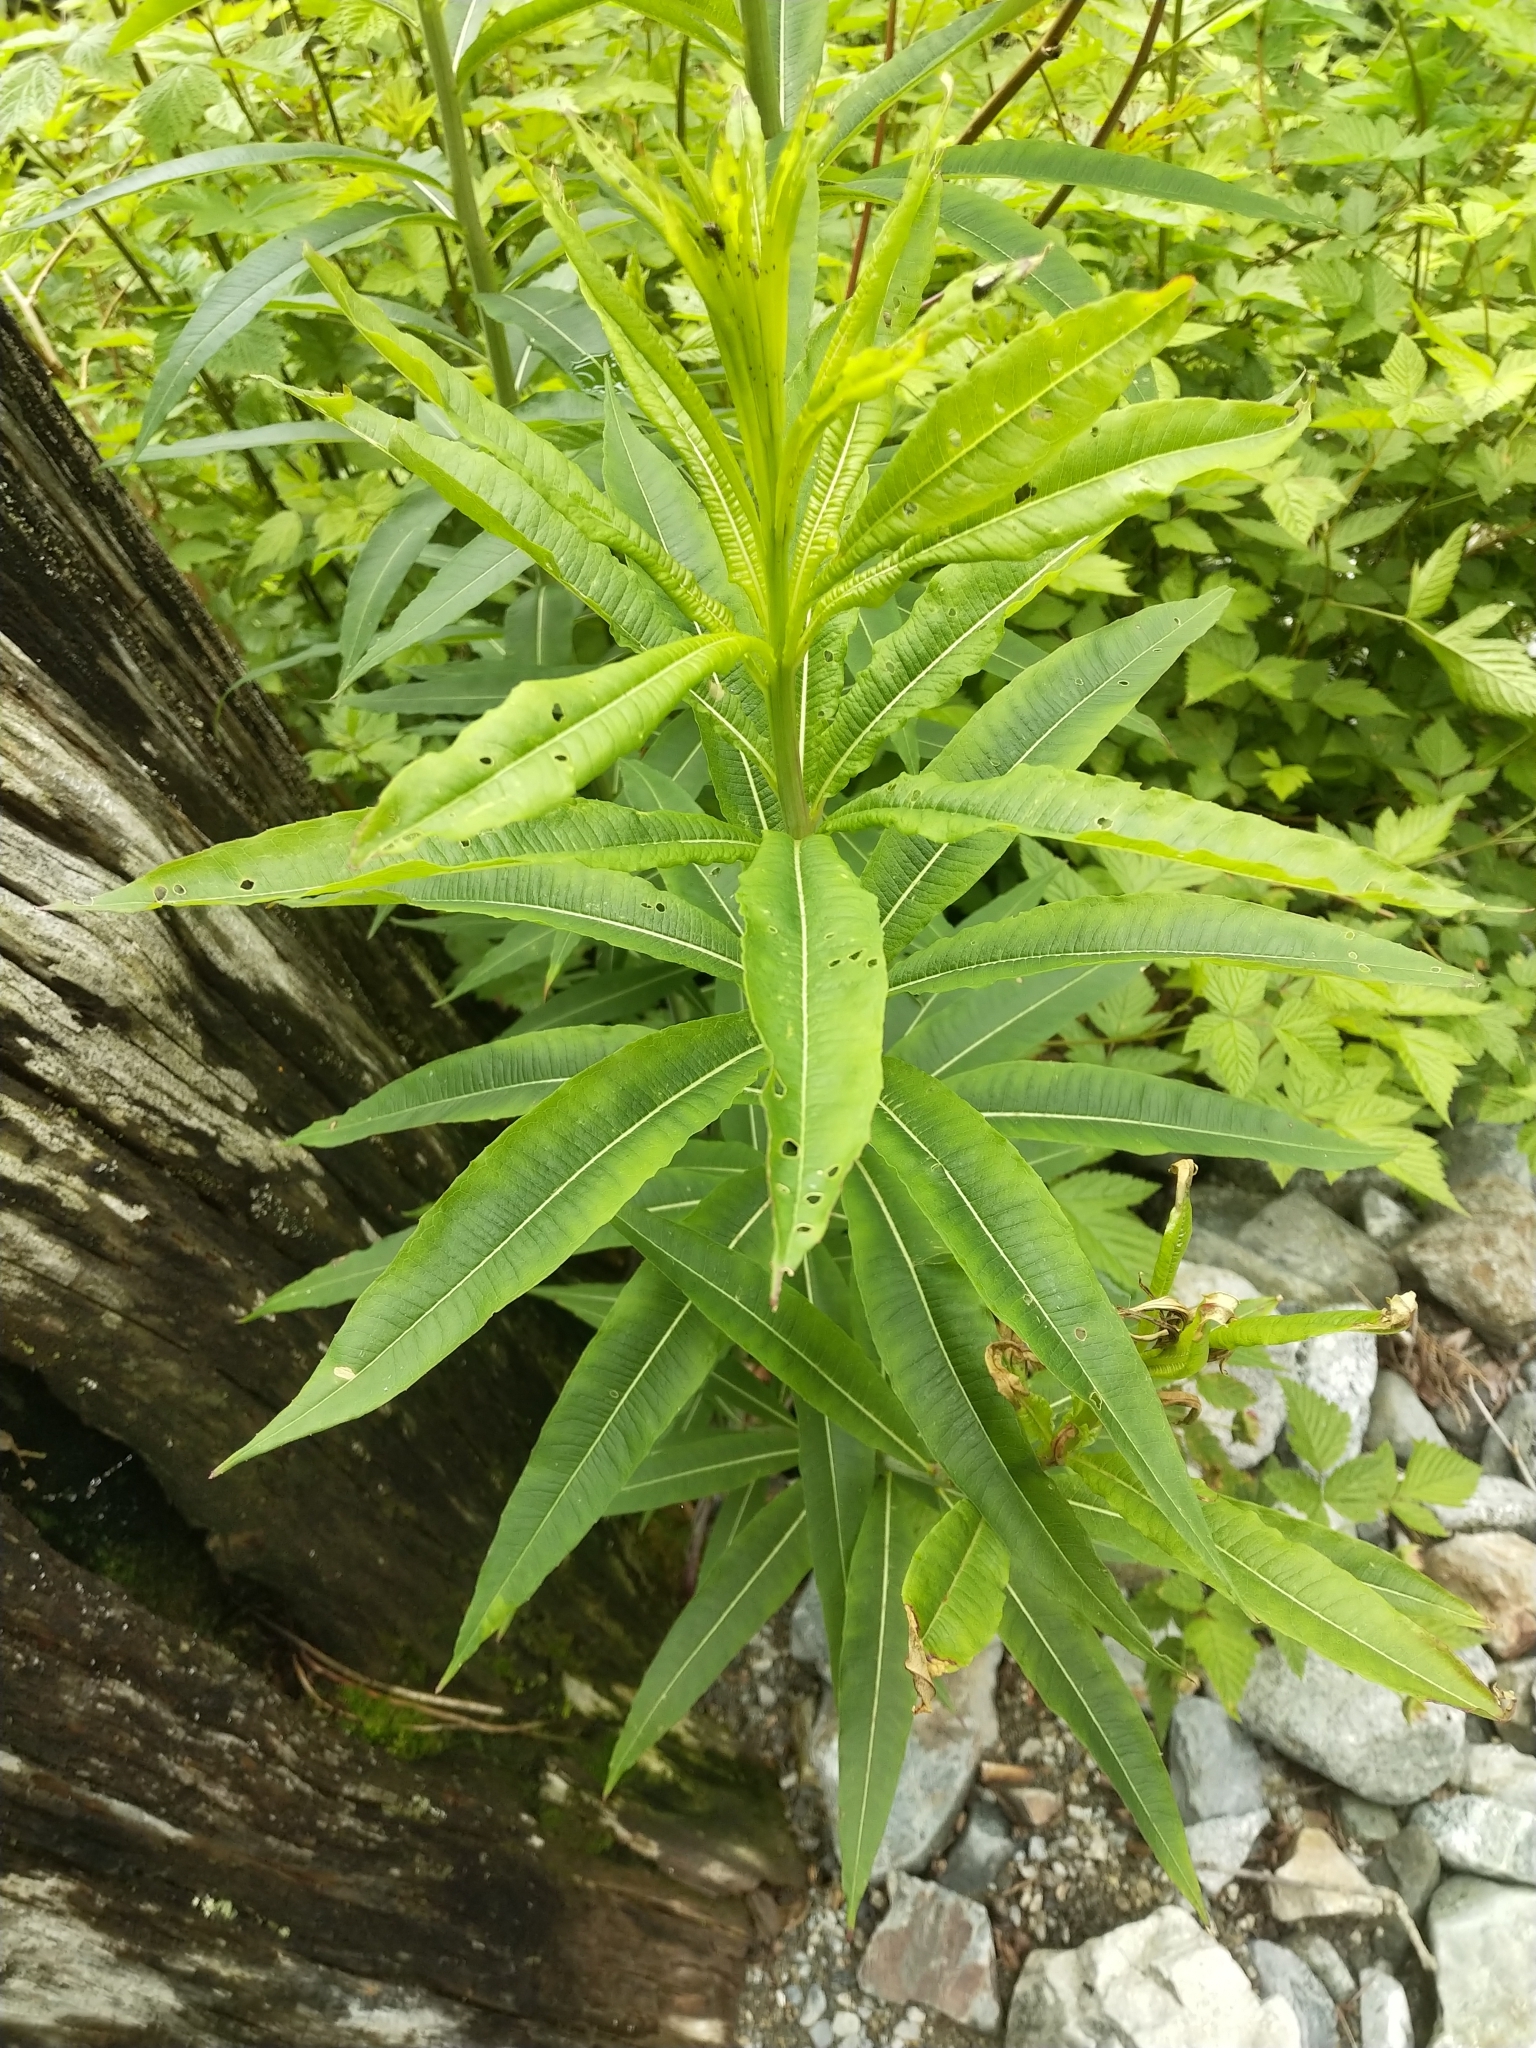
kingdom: Plantae
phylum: Tracheophyta
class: Magnoliopsida
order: Myrtales
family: Onagraceae
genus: Chamaenerion
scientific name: Chamaenerion angustifolium
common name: Fireweed
